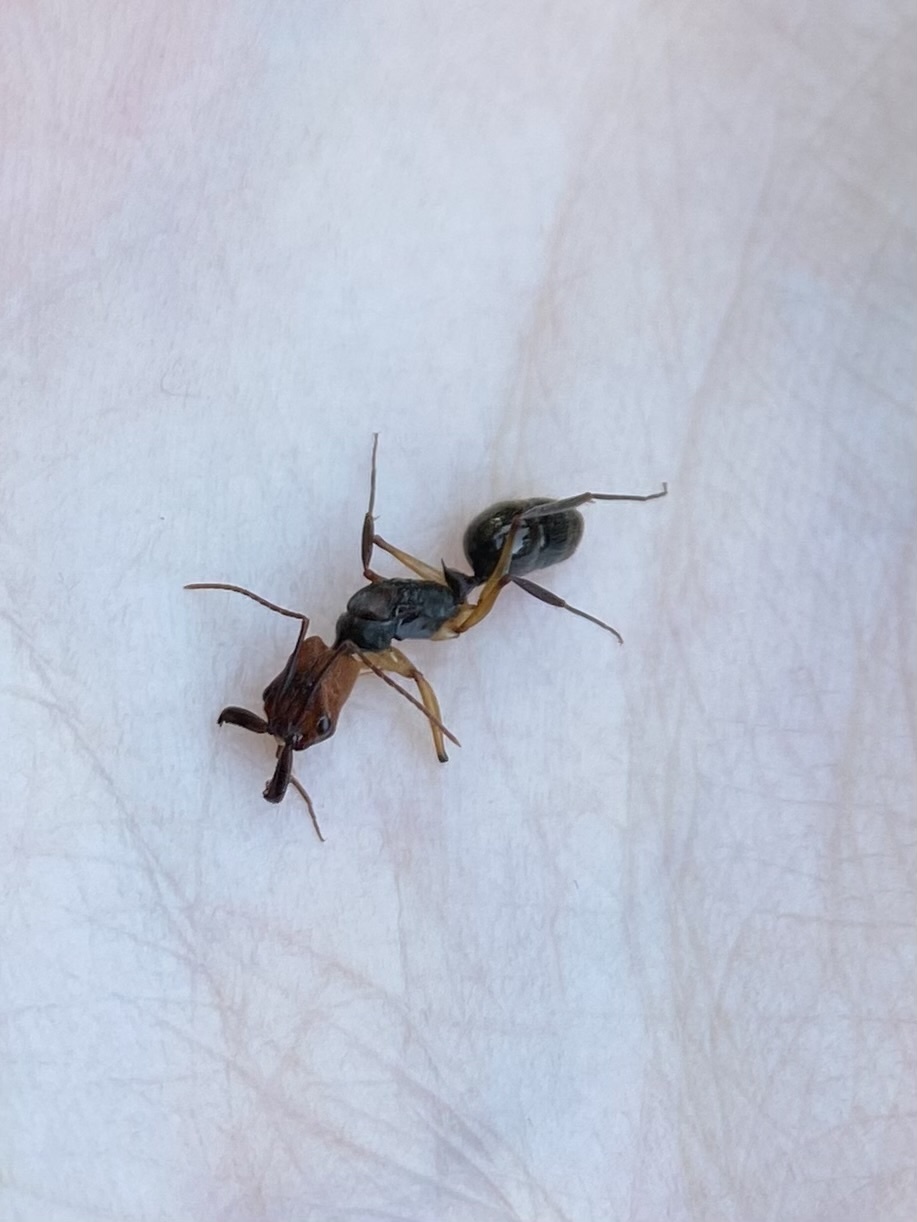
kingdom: Animalia
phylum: Arthropoda
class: Insecta
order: Hymenoptera
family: Formicidae
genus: Odontomachus
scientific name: Odontomachus erythrocephalus
